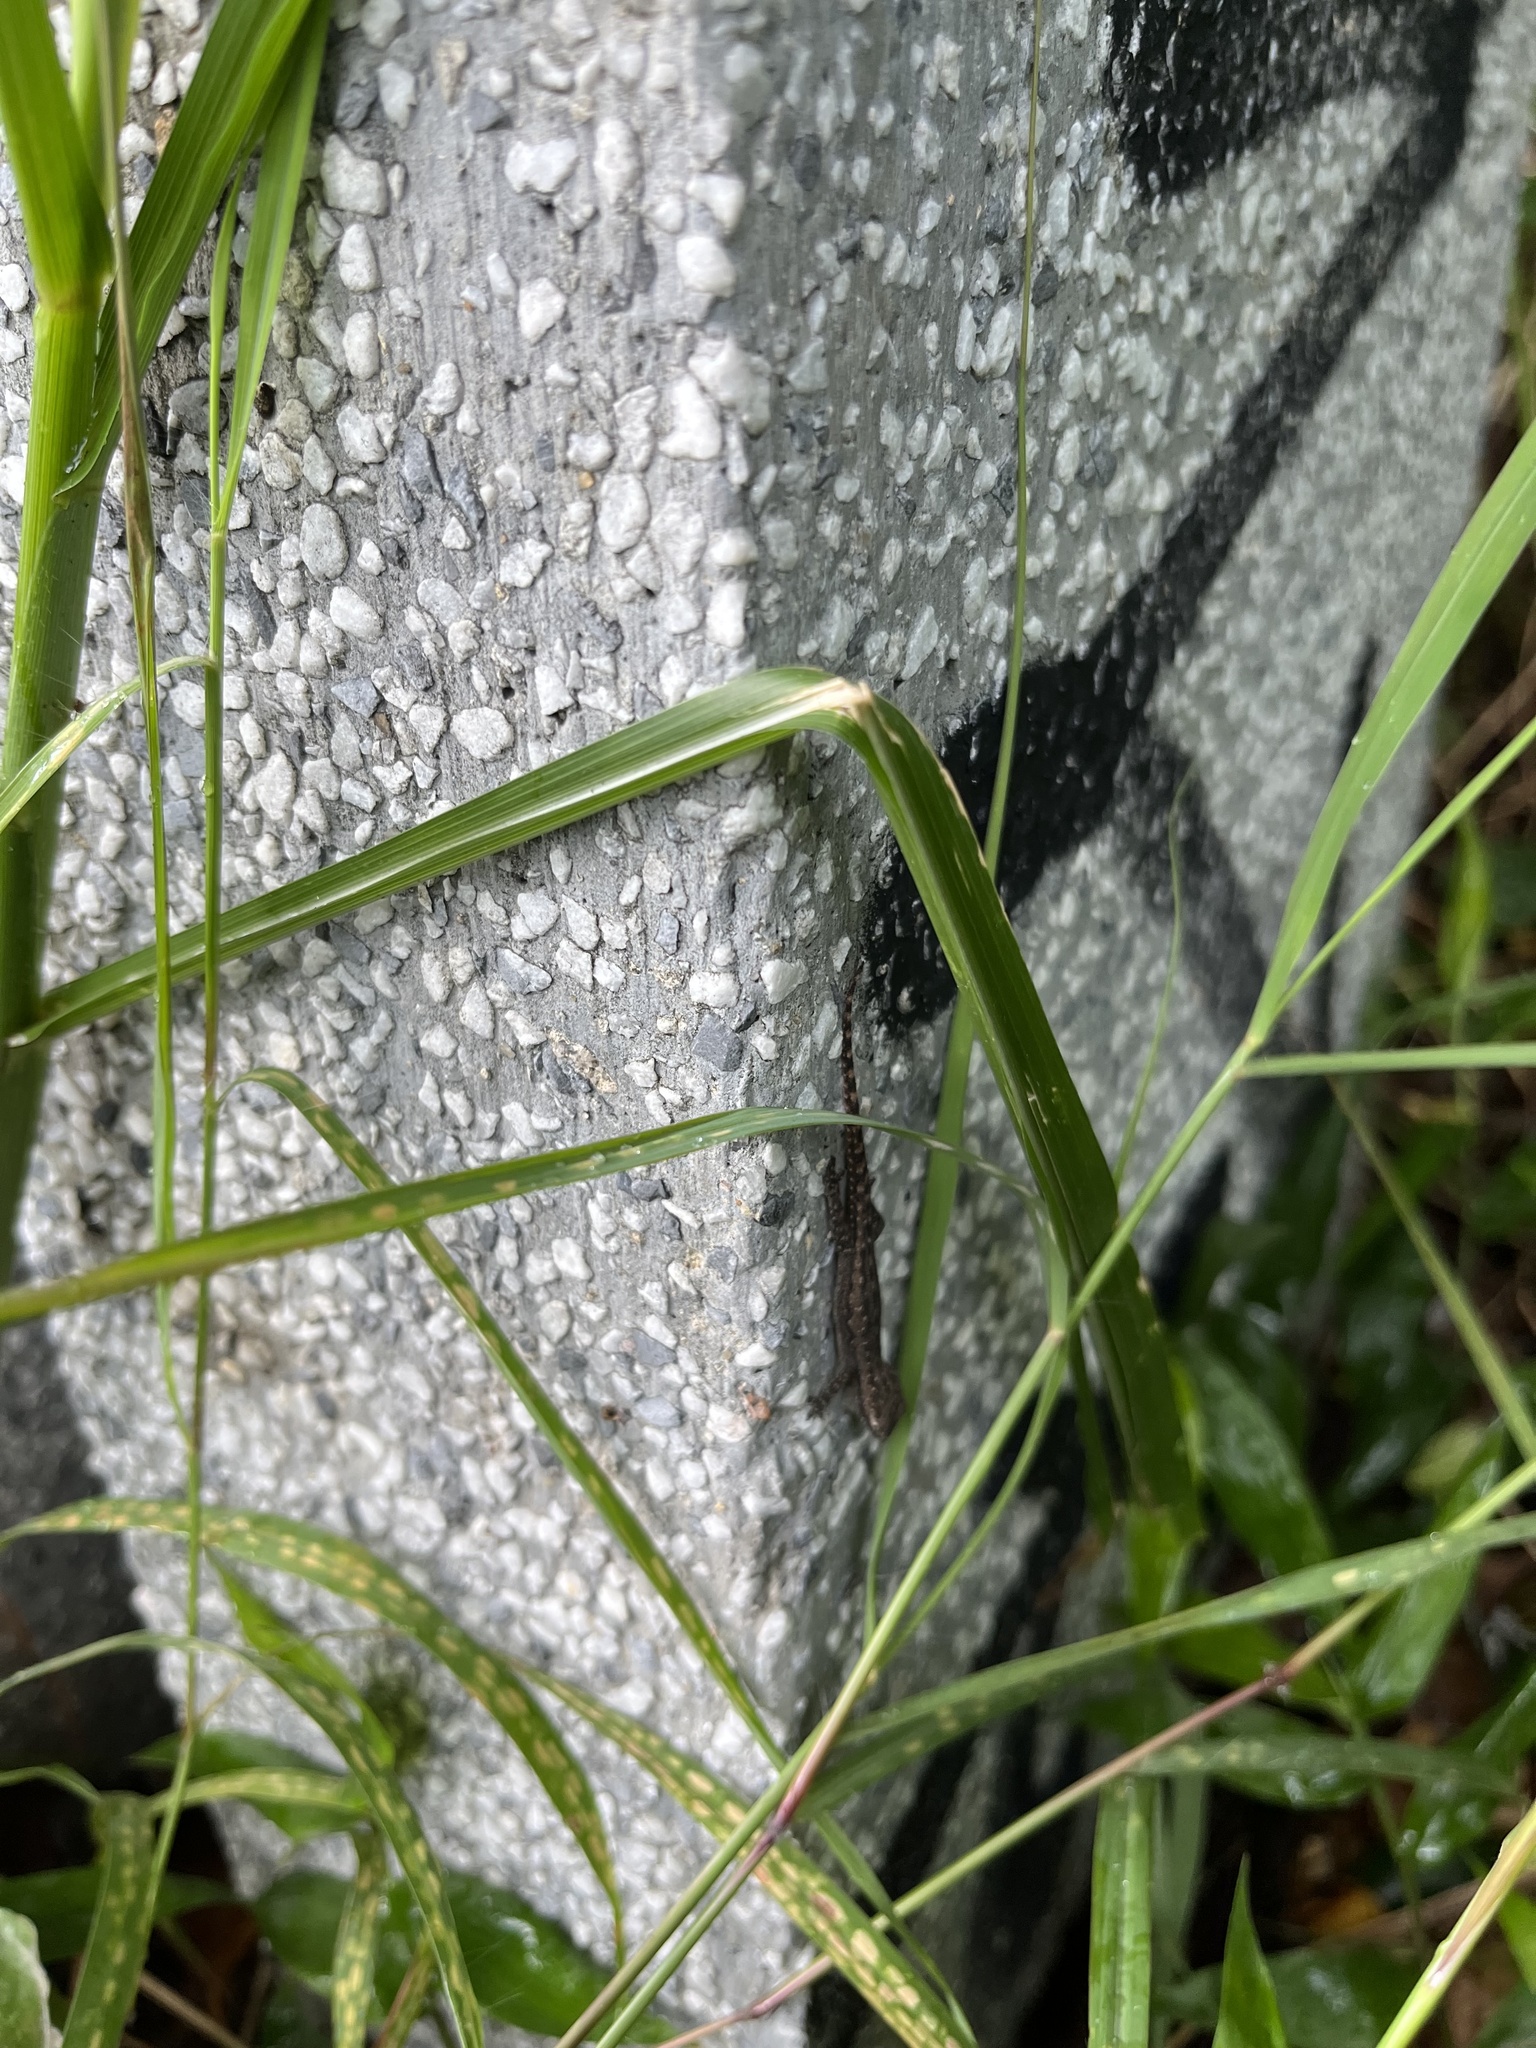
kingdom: Animalia
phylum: Chordata
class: Squamata
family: Gekkonidae
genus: Hemidactylus
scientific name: Hemidactylus garnotii
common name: Indo-pacific gecko
